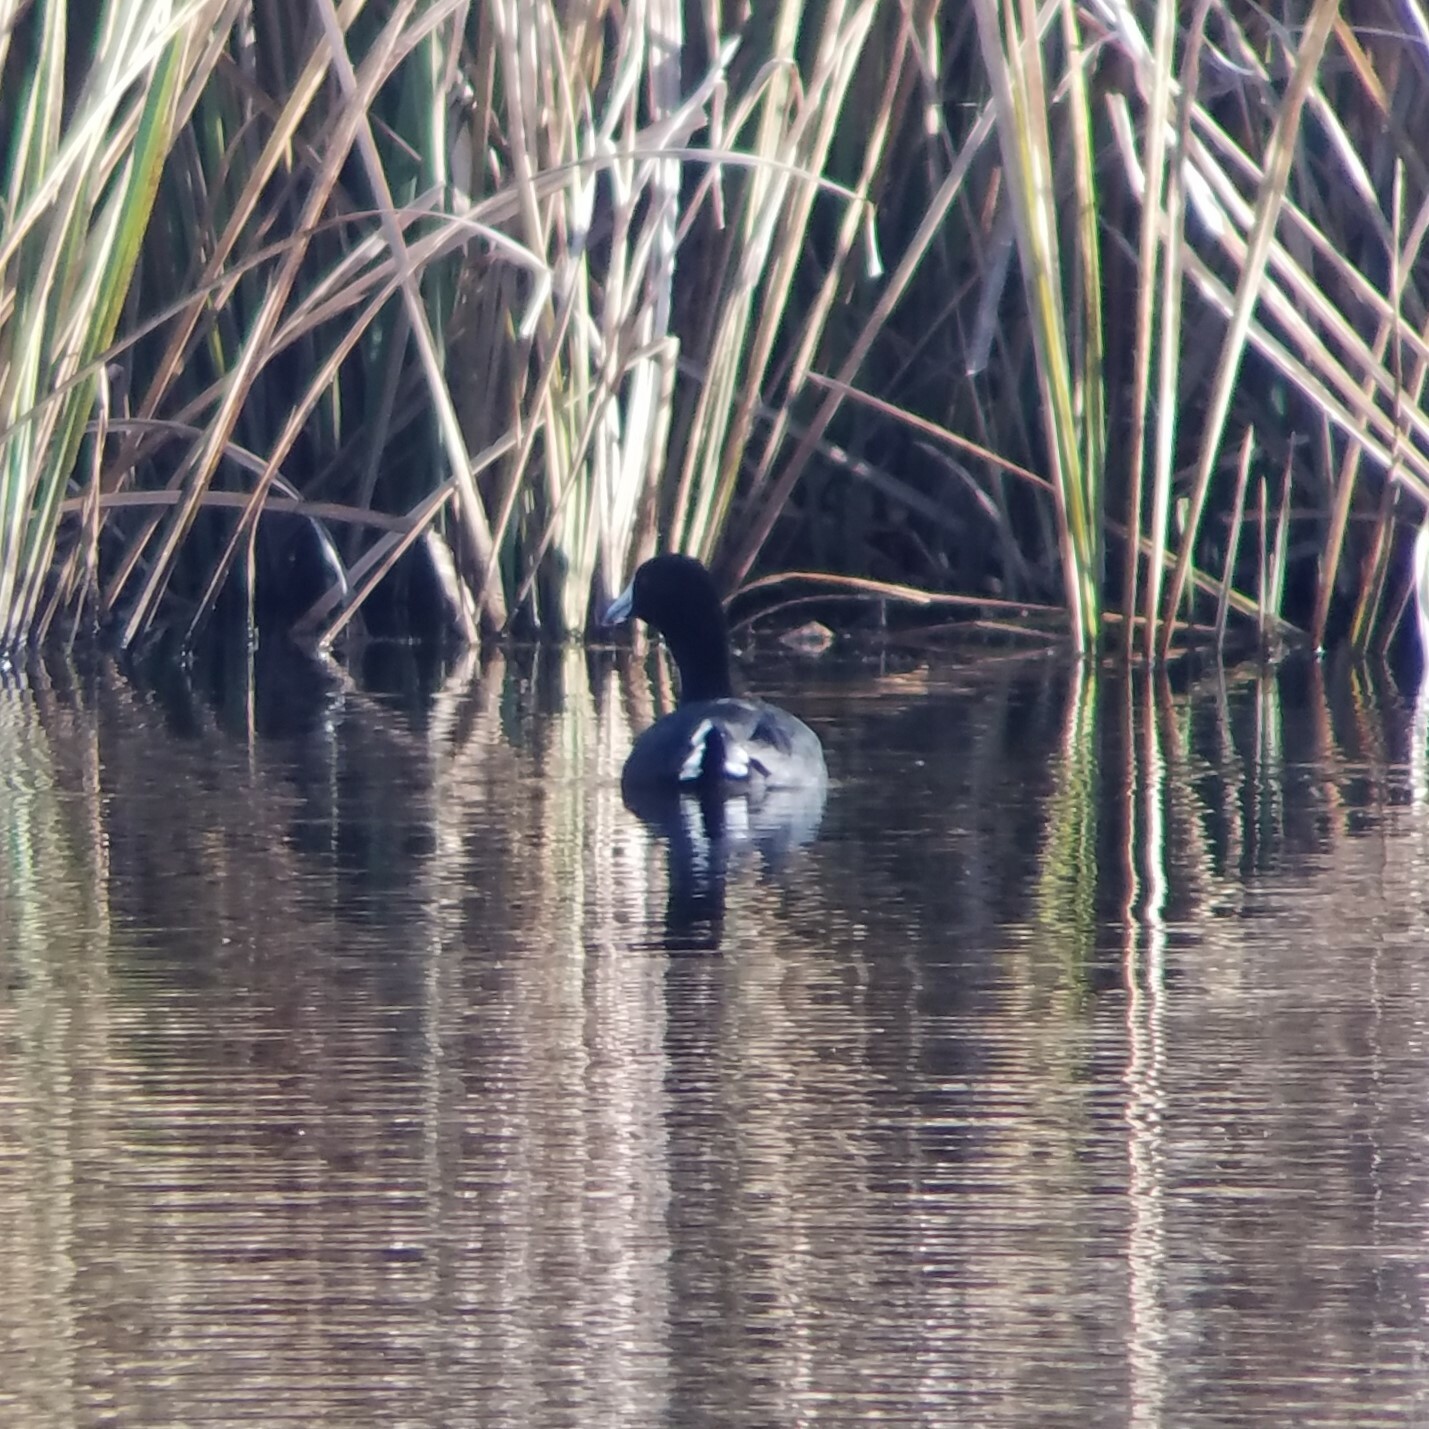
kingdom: Animalia
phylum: Chordata
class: Aves
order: Gruiformes
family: Rallidae
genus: Fulica
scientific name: Fulica americana
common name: American coot
